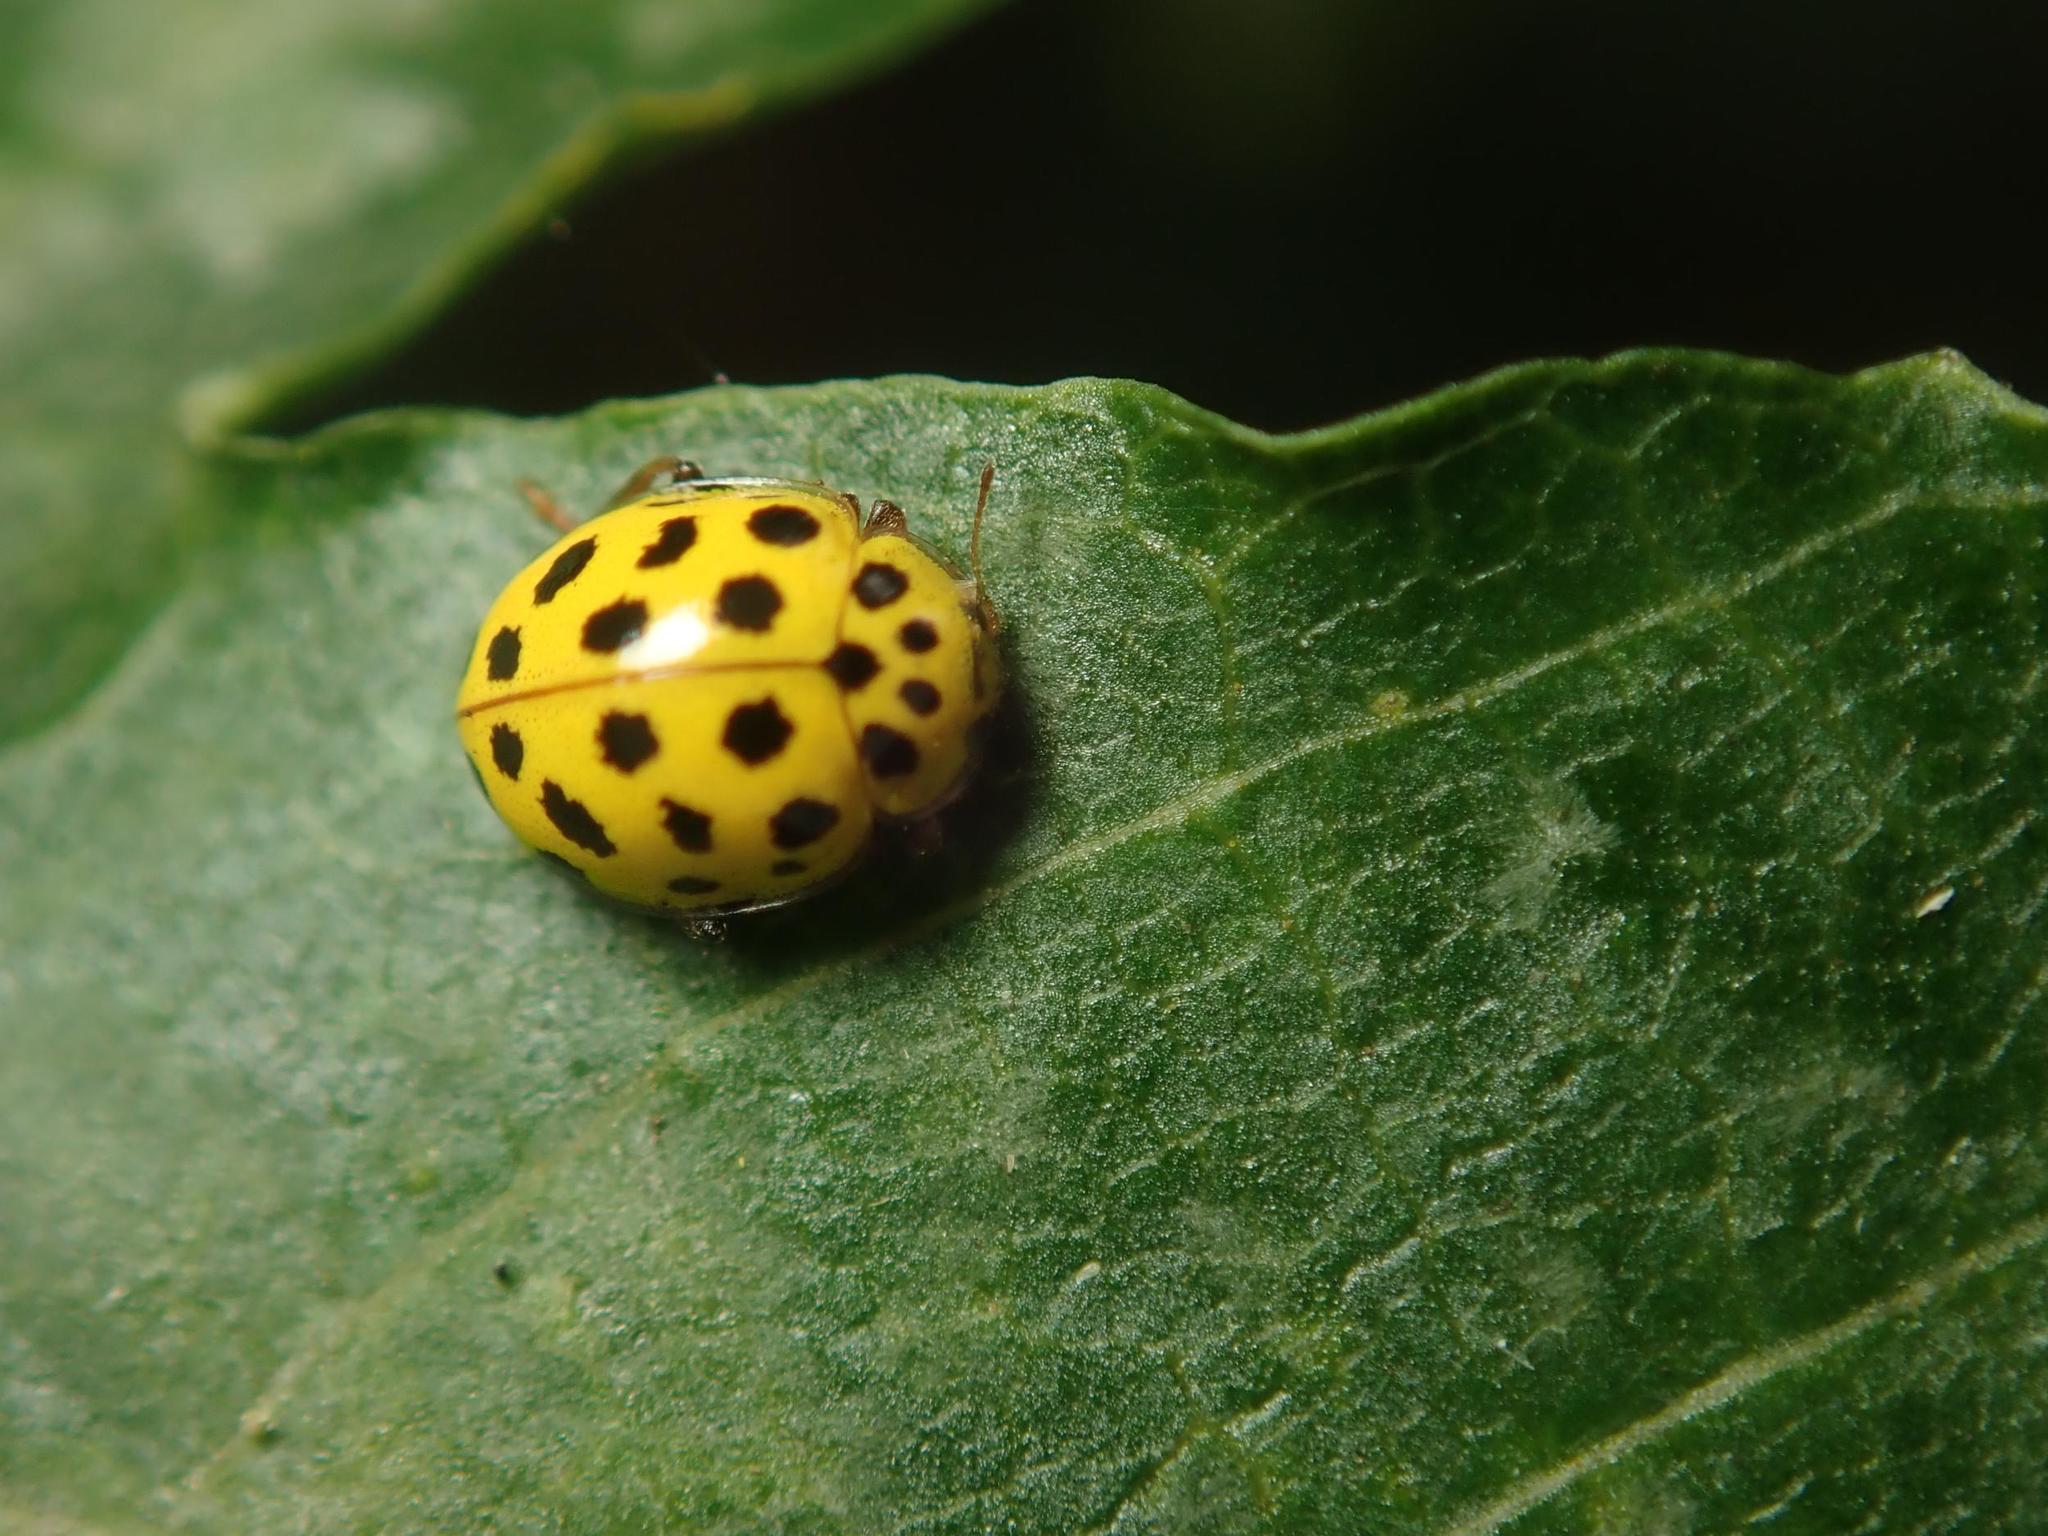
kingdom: Animalia
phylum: Arthropoda
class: Insecta
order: Coleoptera
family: Coccinellidae
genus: Psyllobora
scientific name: Psyllobora vigintiduopunctata
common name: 22-spot ladybird
